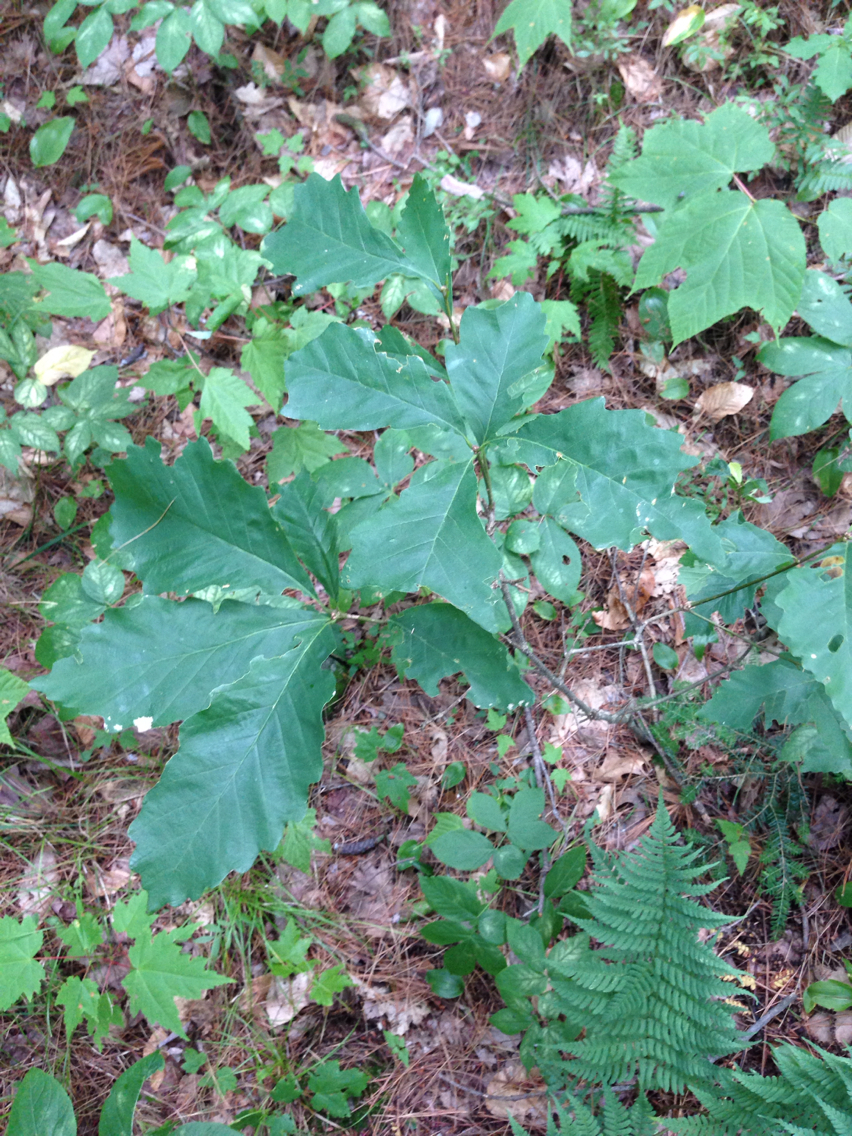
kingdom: Plantae
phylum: Tracheophyta
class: Magnoliopsida
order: Fagales
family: Fagaceae
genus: Quercus
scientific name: Quercus montana
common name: Chestnut oak
